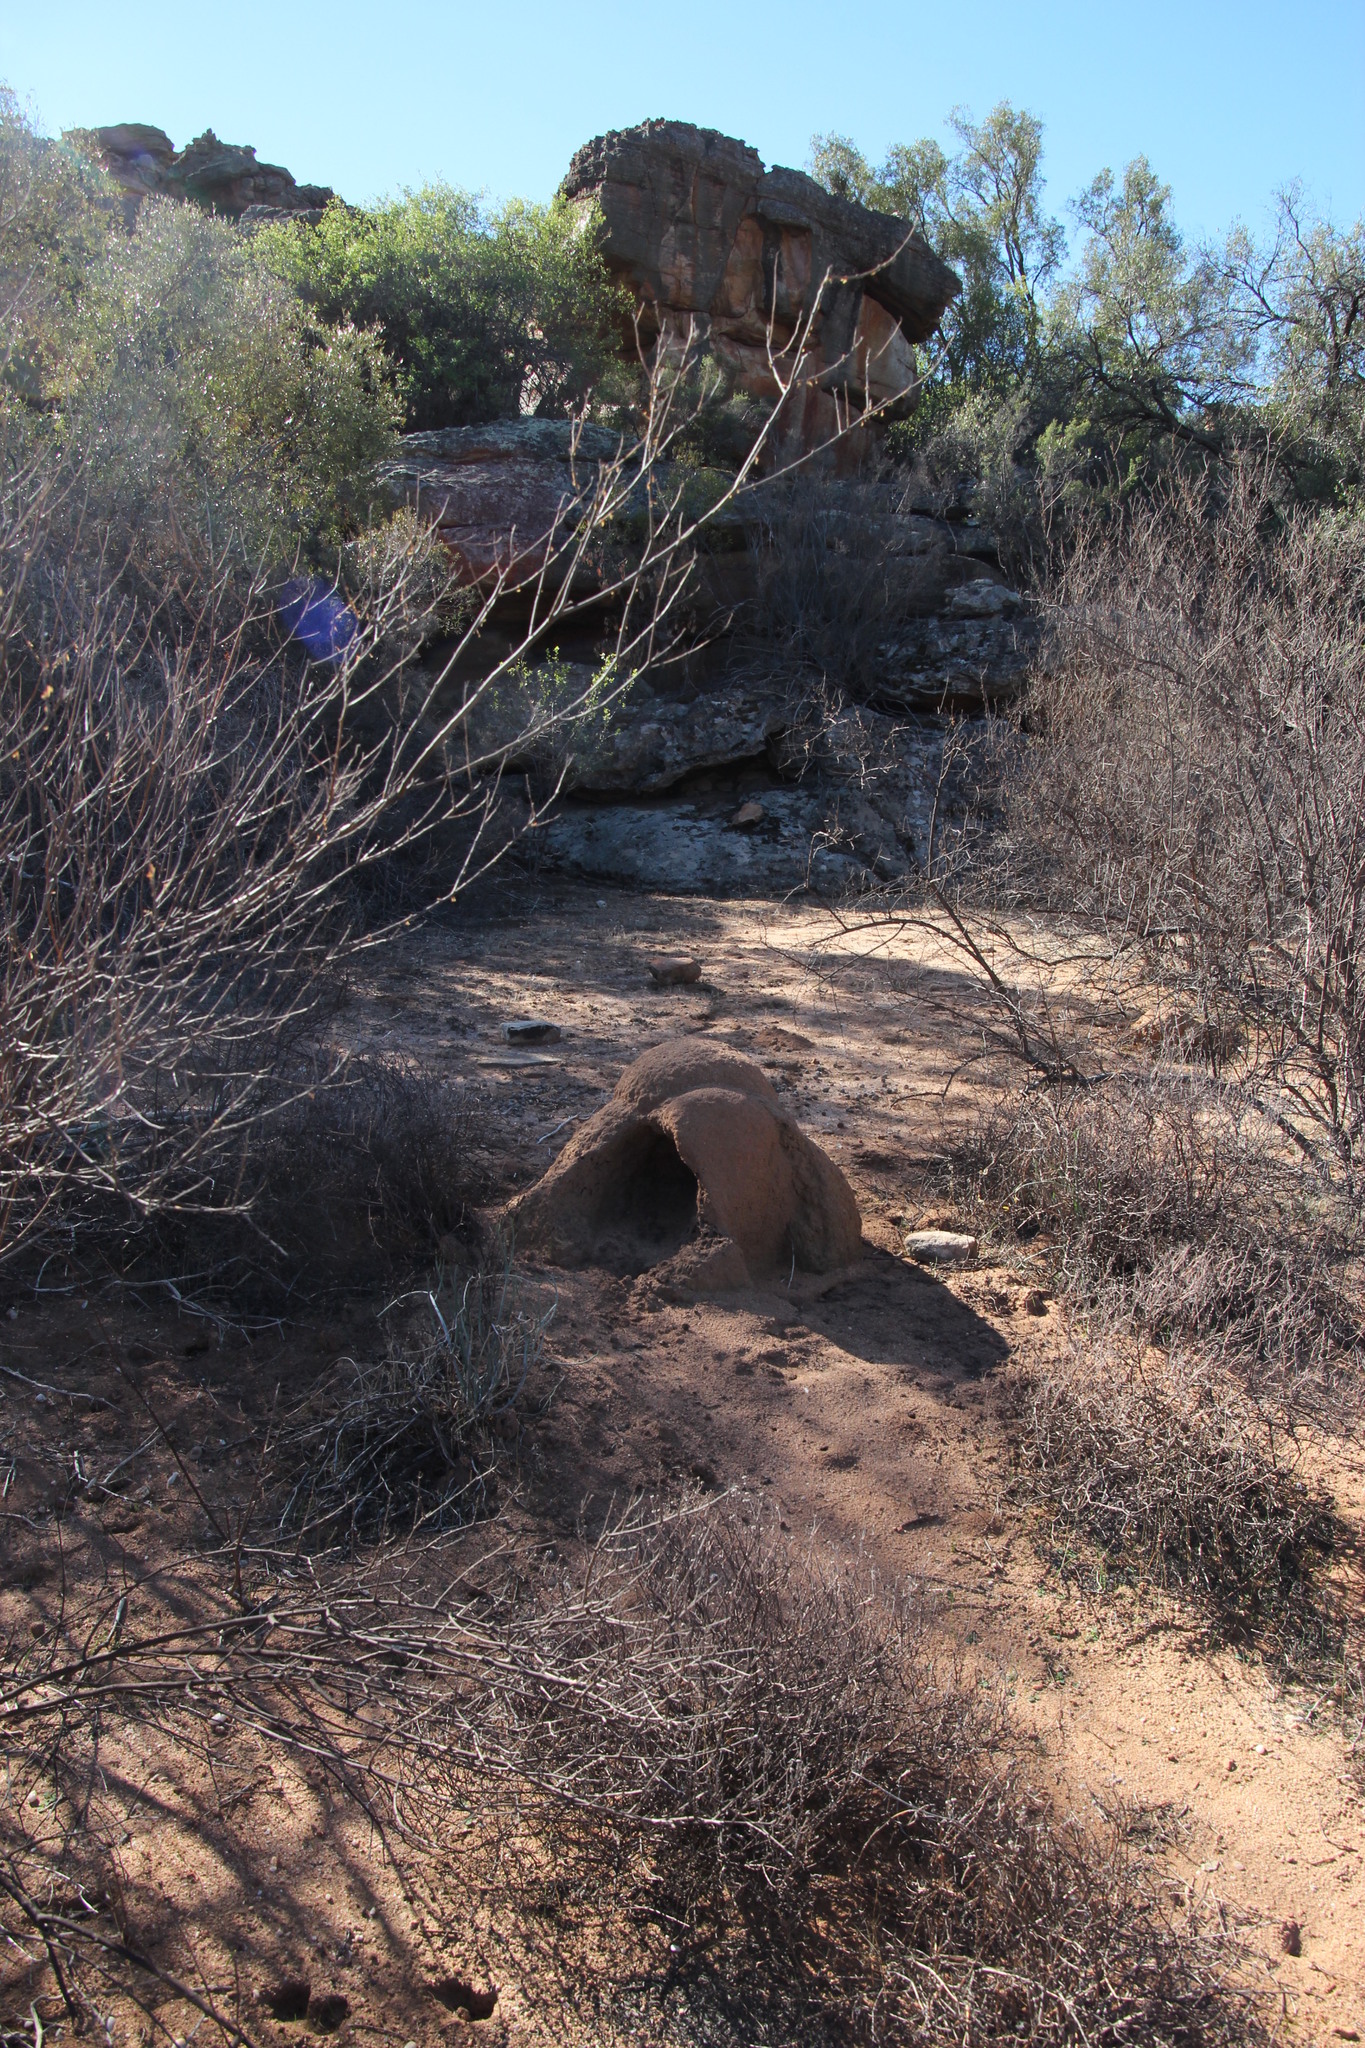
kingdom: Animalia
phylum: Chordata
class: Mammalia
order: Tubulidentata
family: Orycteropodidae
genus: Orycteropus
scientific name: Orycteropus afer
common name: Aardvark
